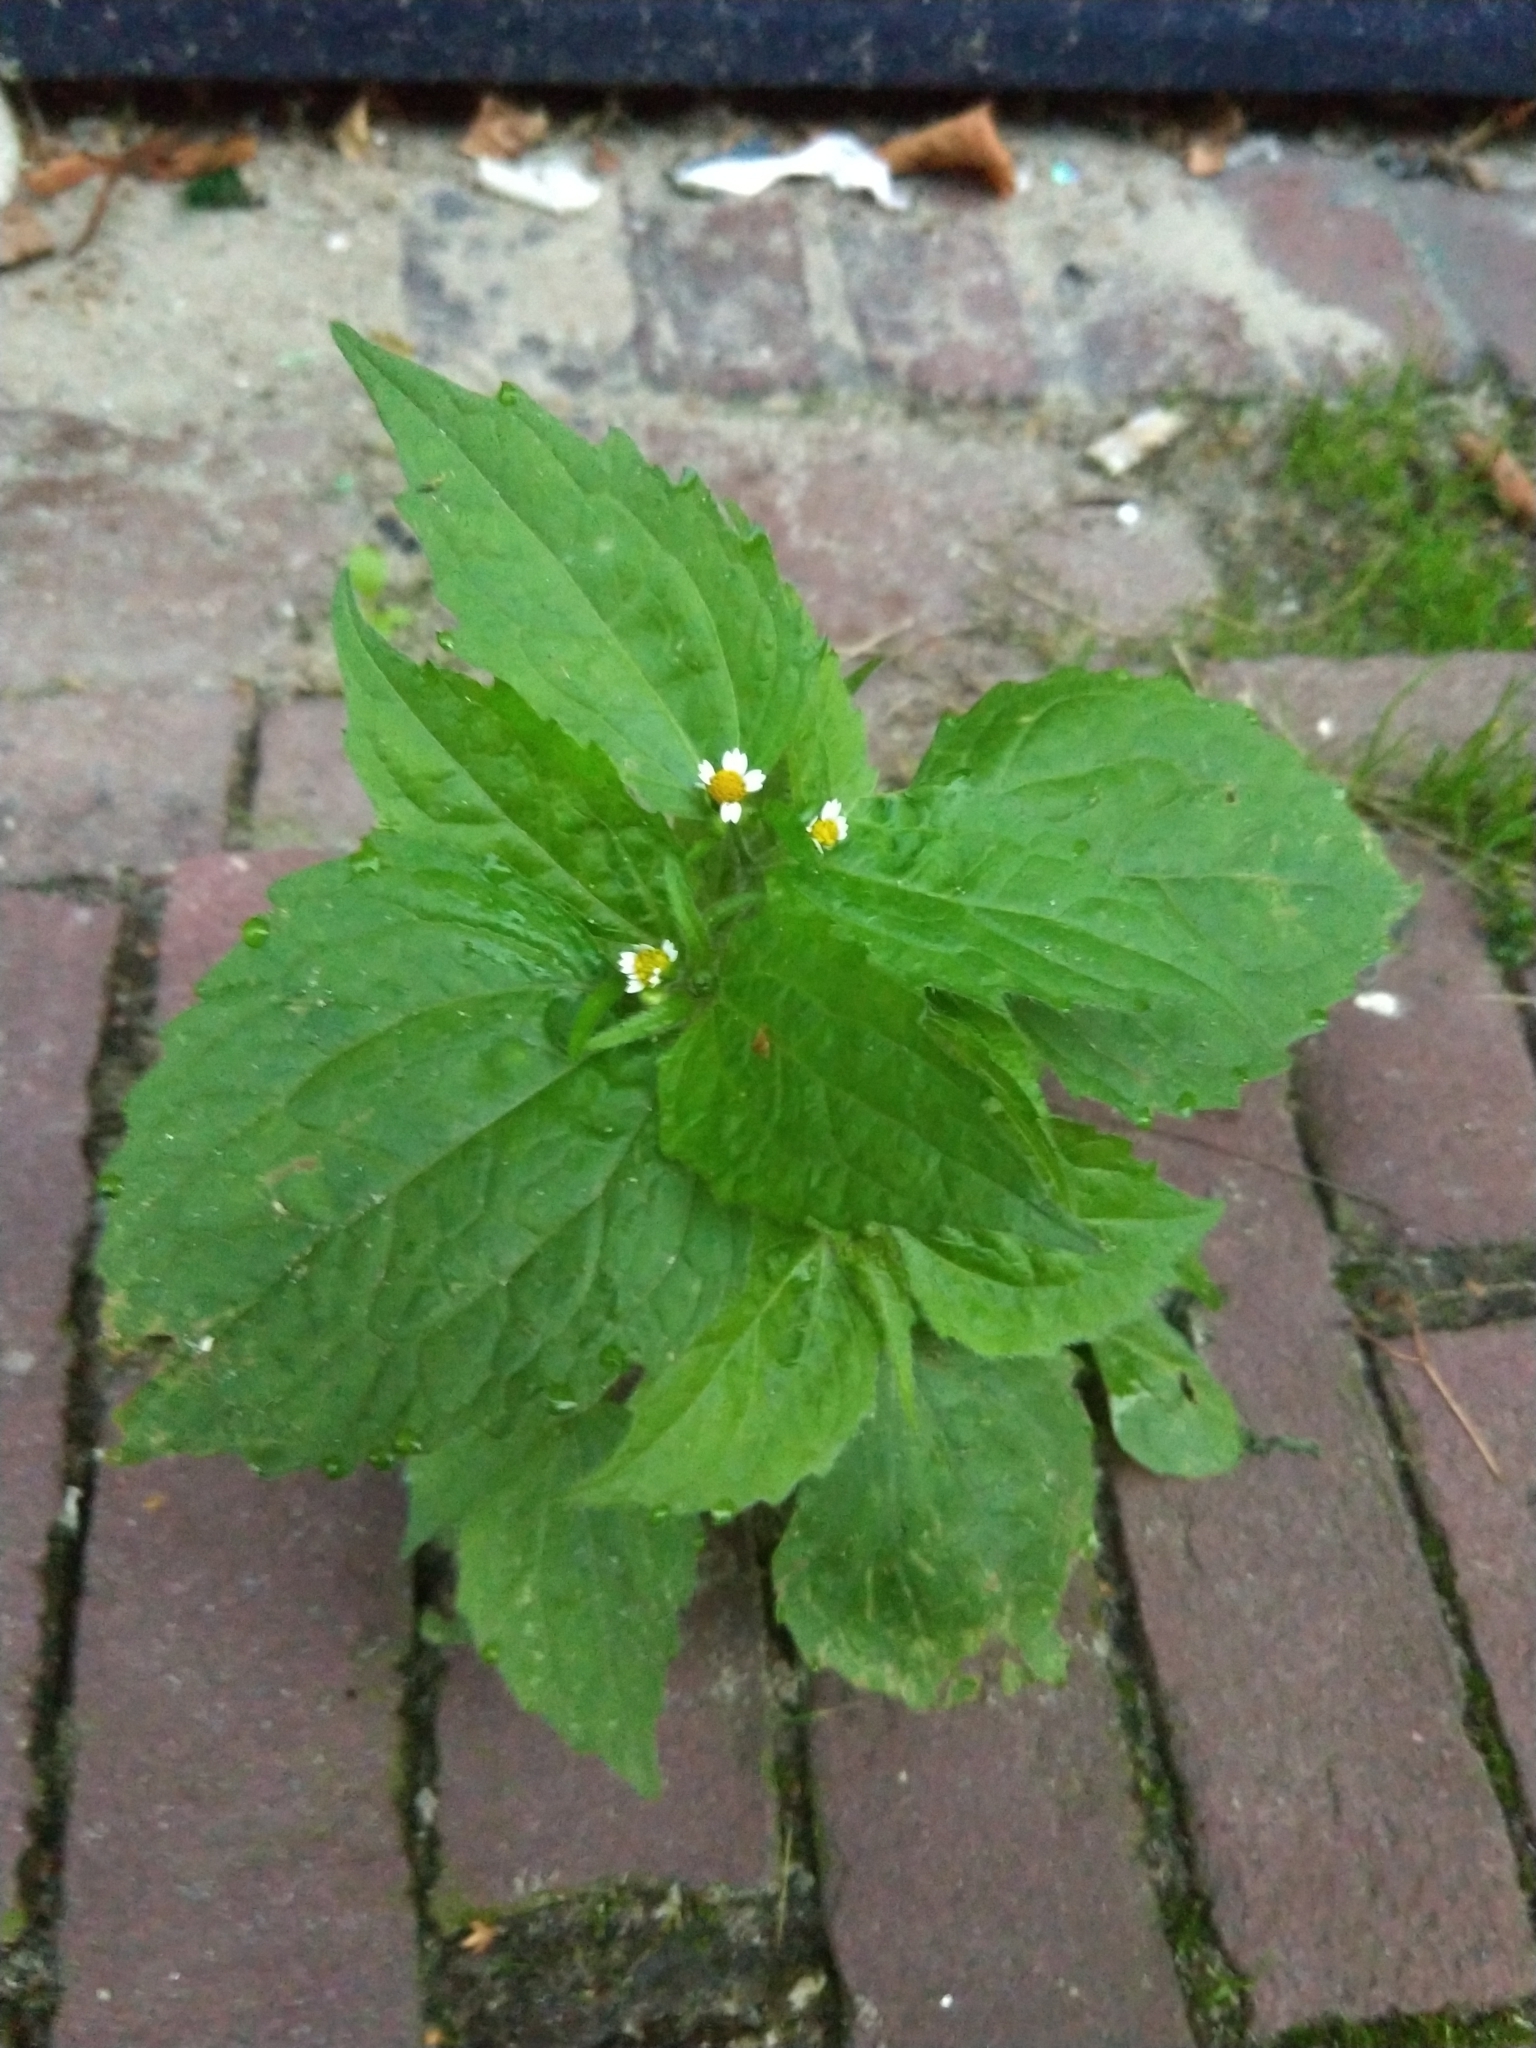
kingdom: Plantae
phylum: Tracheophyta
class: Magnoliopsida
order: Asterales
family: Asteraceae
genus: Galinsoga
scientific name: Galinsoga quadriradiata
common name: Shaggy soldier
